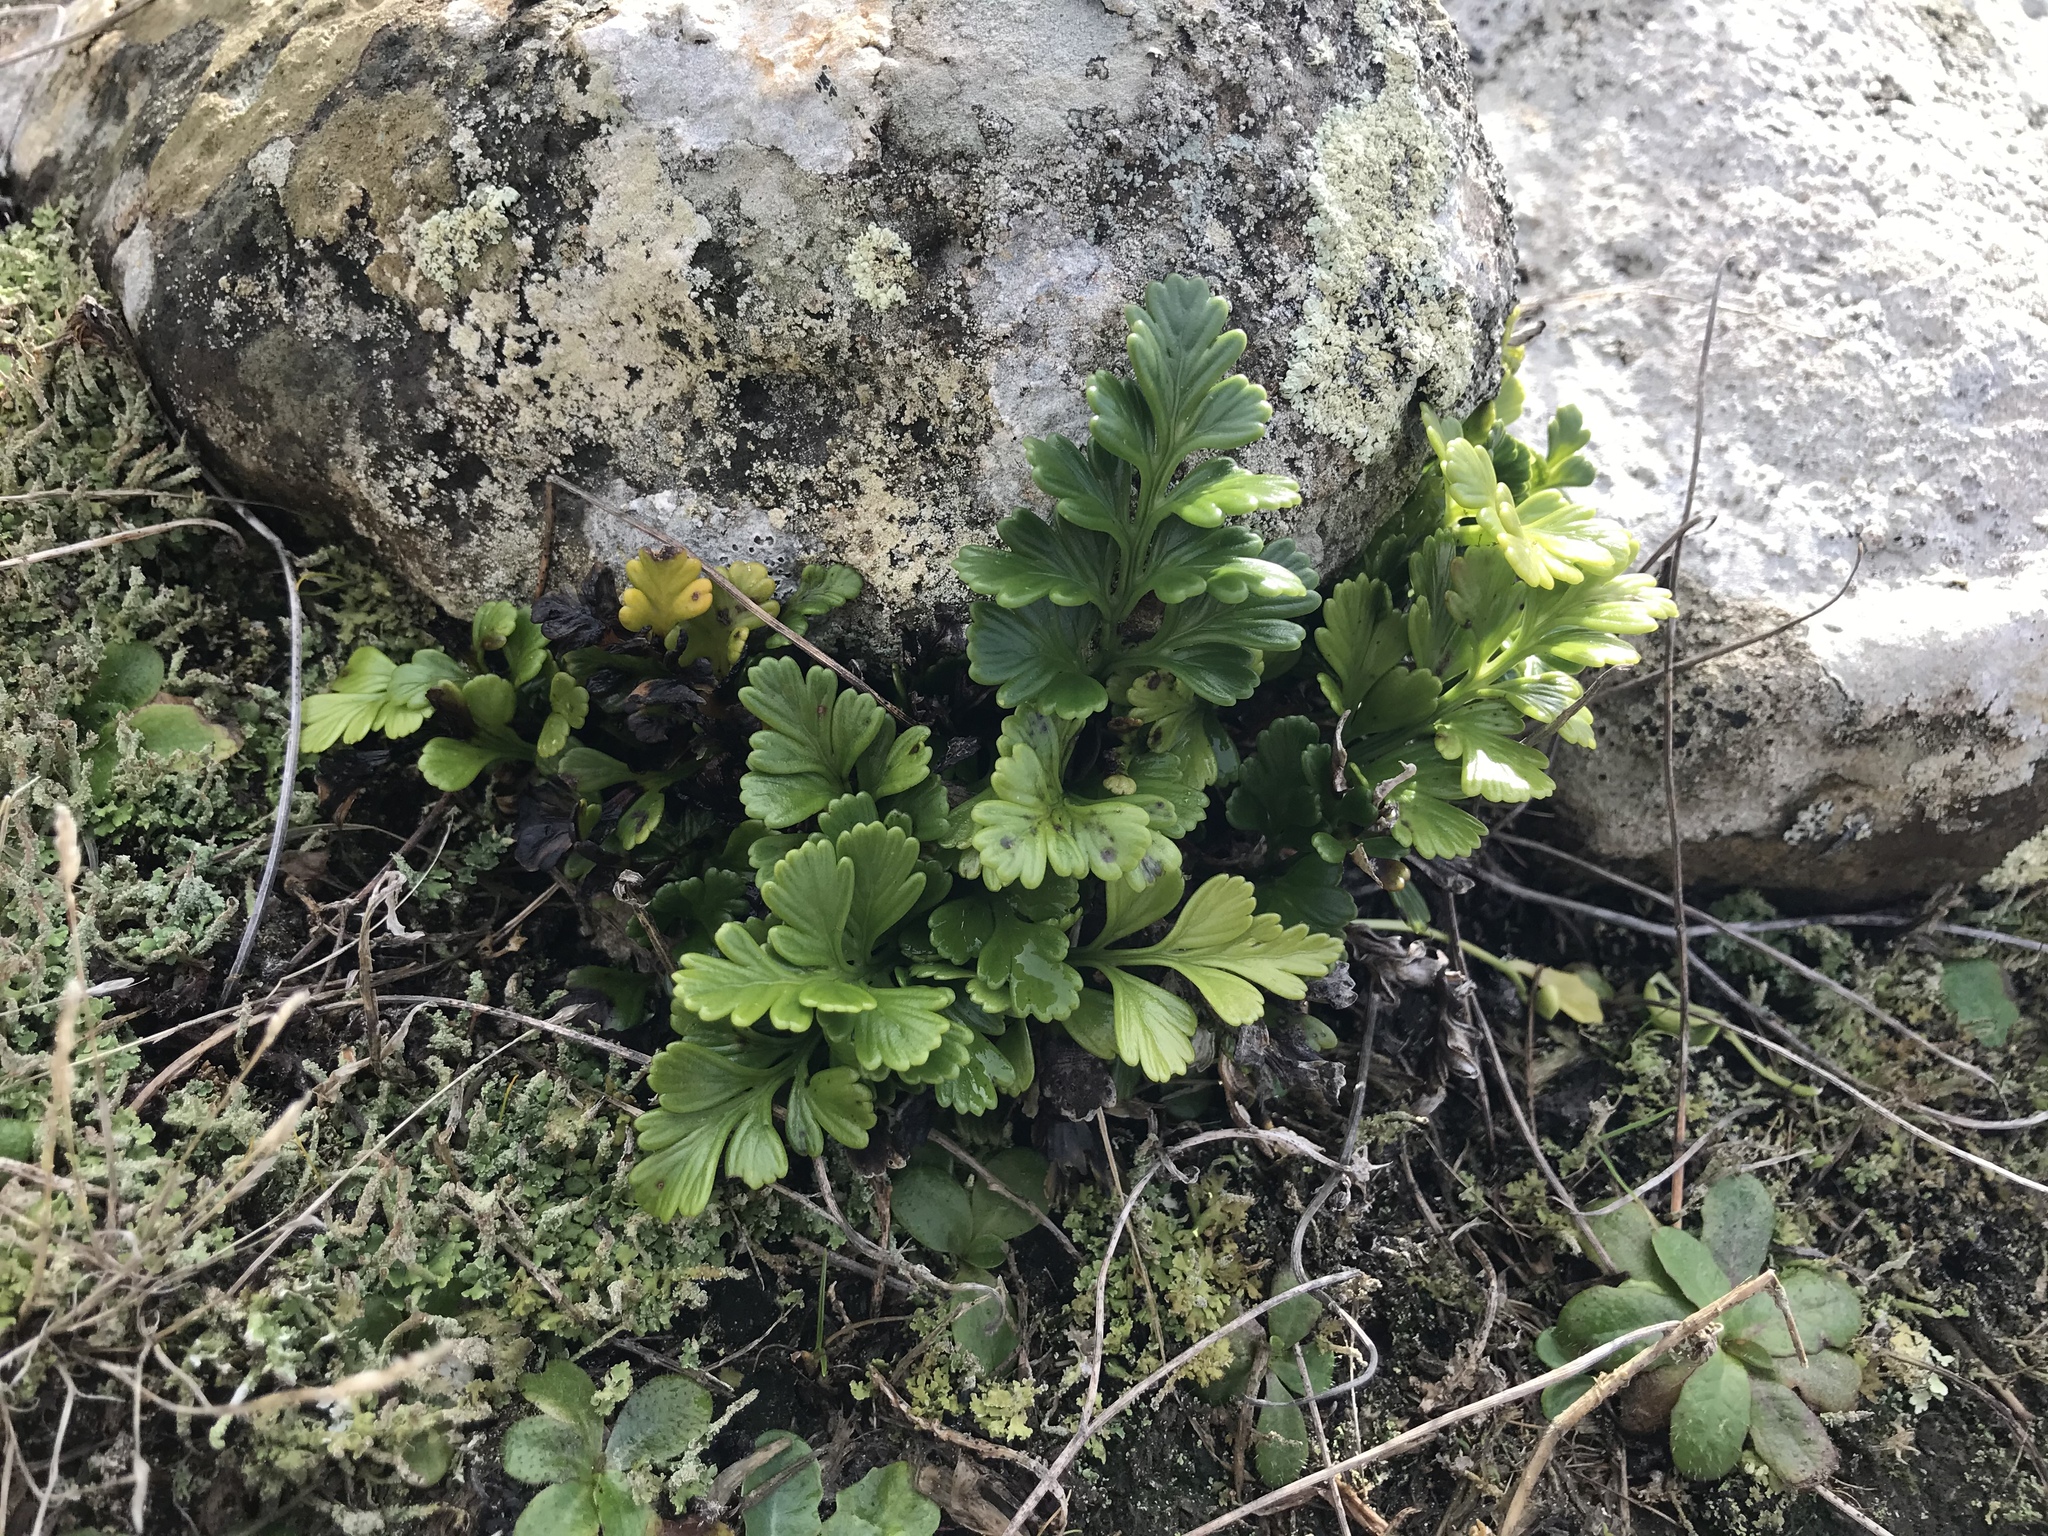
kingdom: Plantae
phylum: Tracheophyta
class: Polypodiopsida
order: Polypodiales
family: Aspleniaceae
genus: Asplenium
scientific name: Asplenium chathamense
